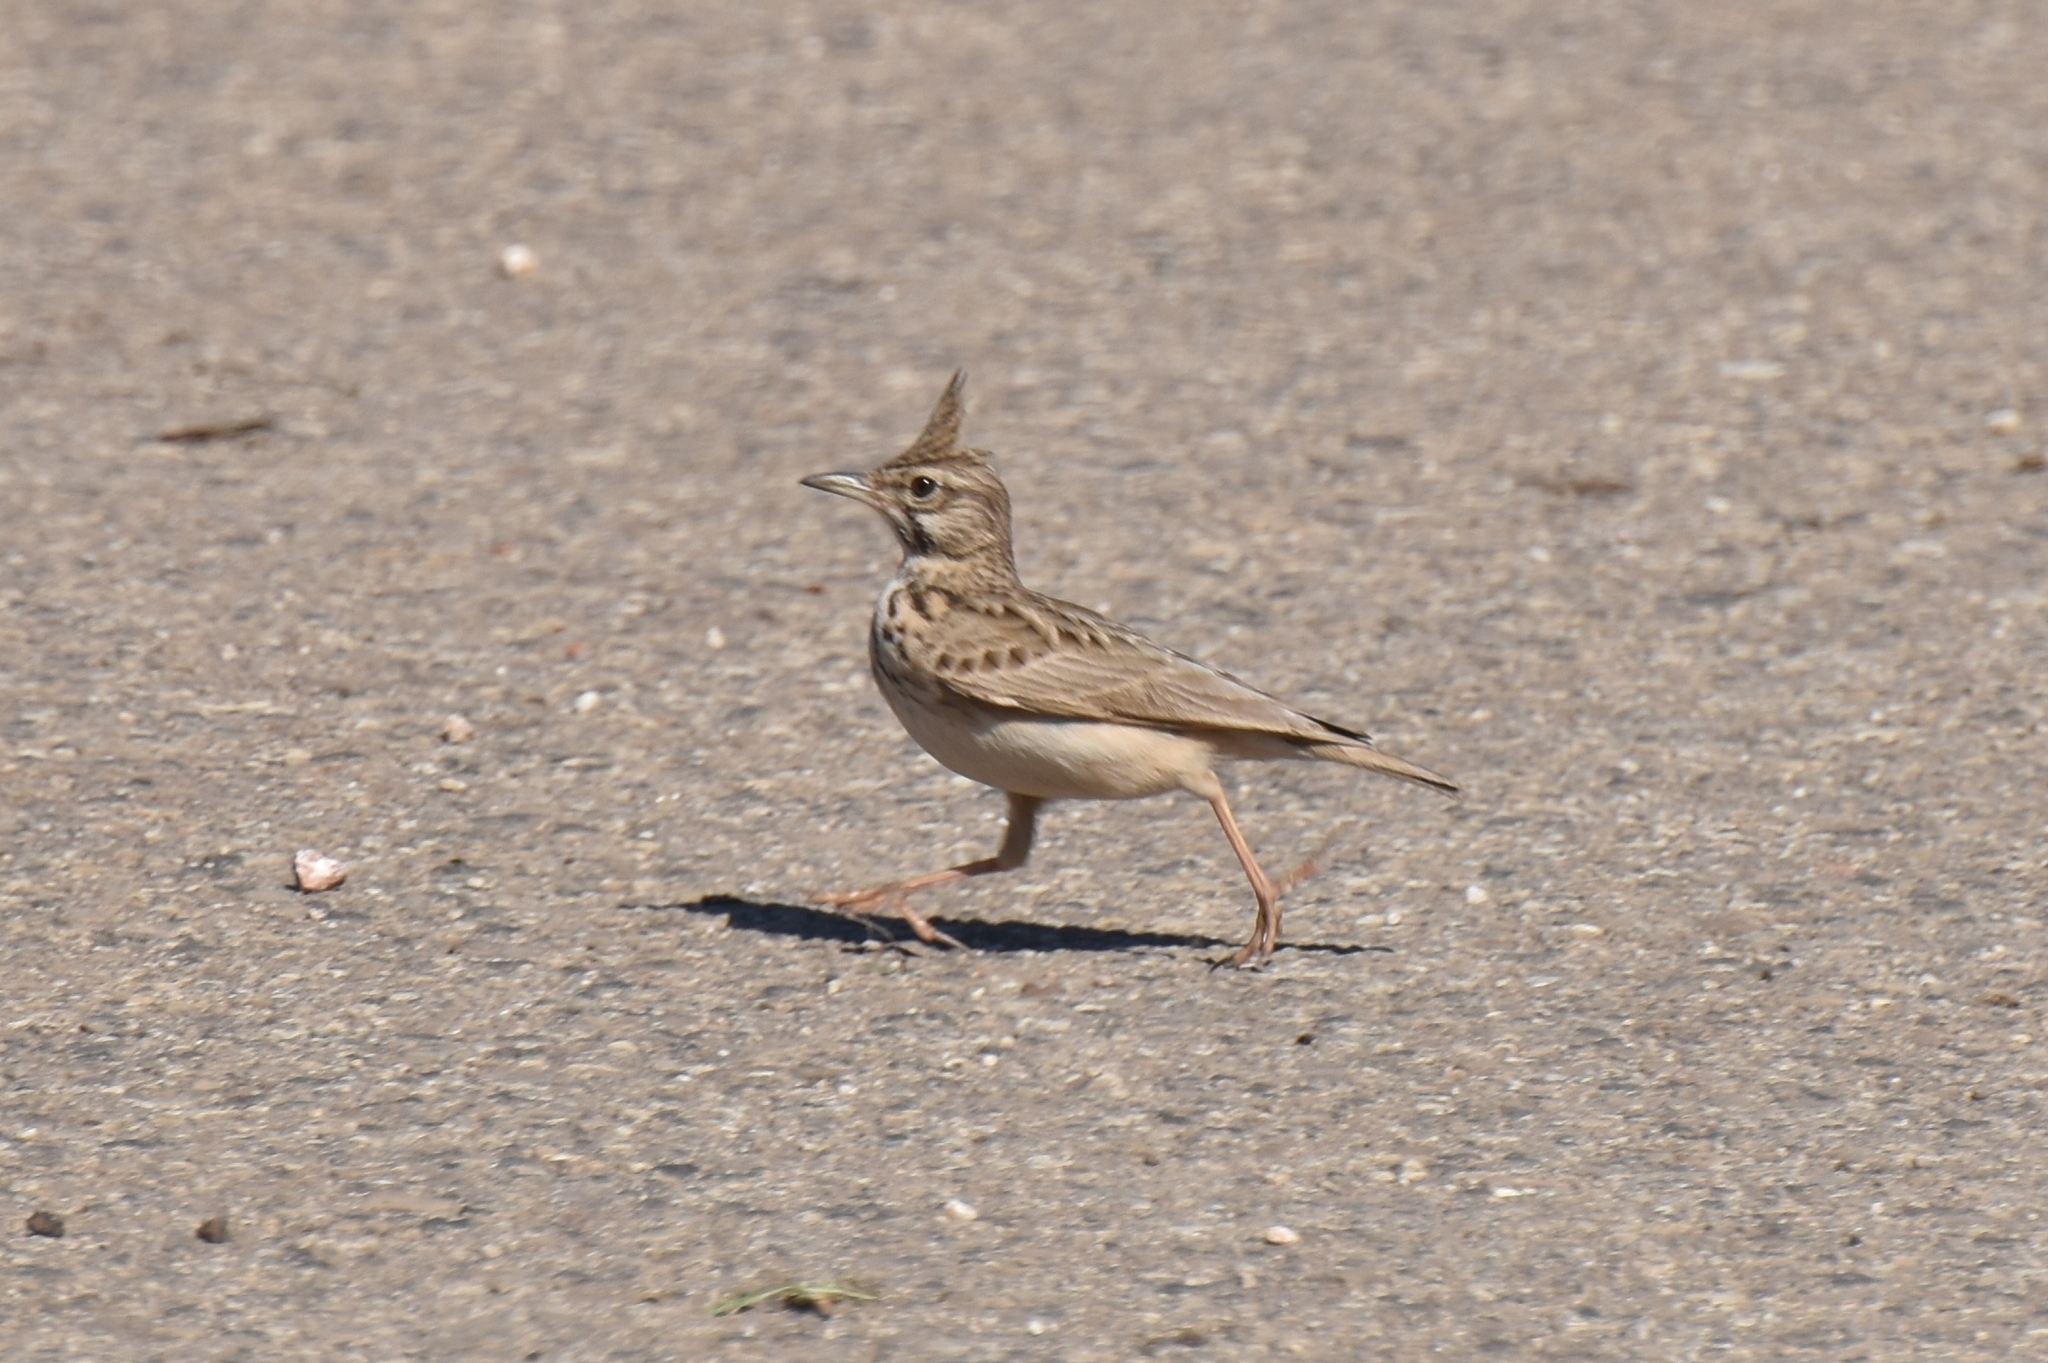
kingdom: Animalia
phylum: Chordata
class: Aves
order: Passeriformes
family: Alaudidae
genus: Galerida
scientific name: Galerida cristata
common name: Crested lark
